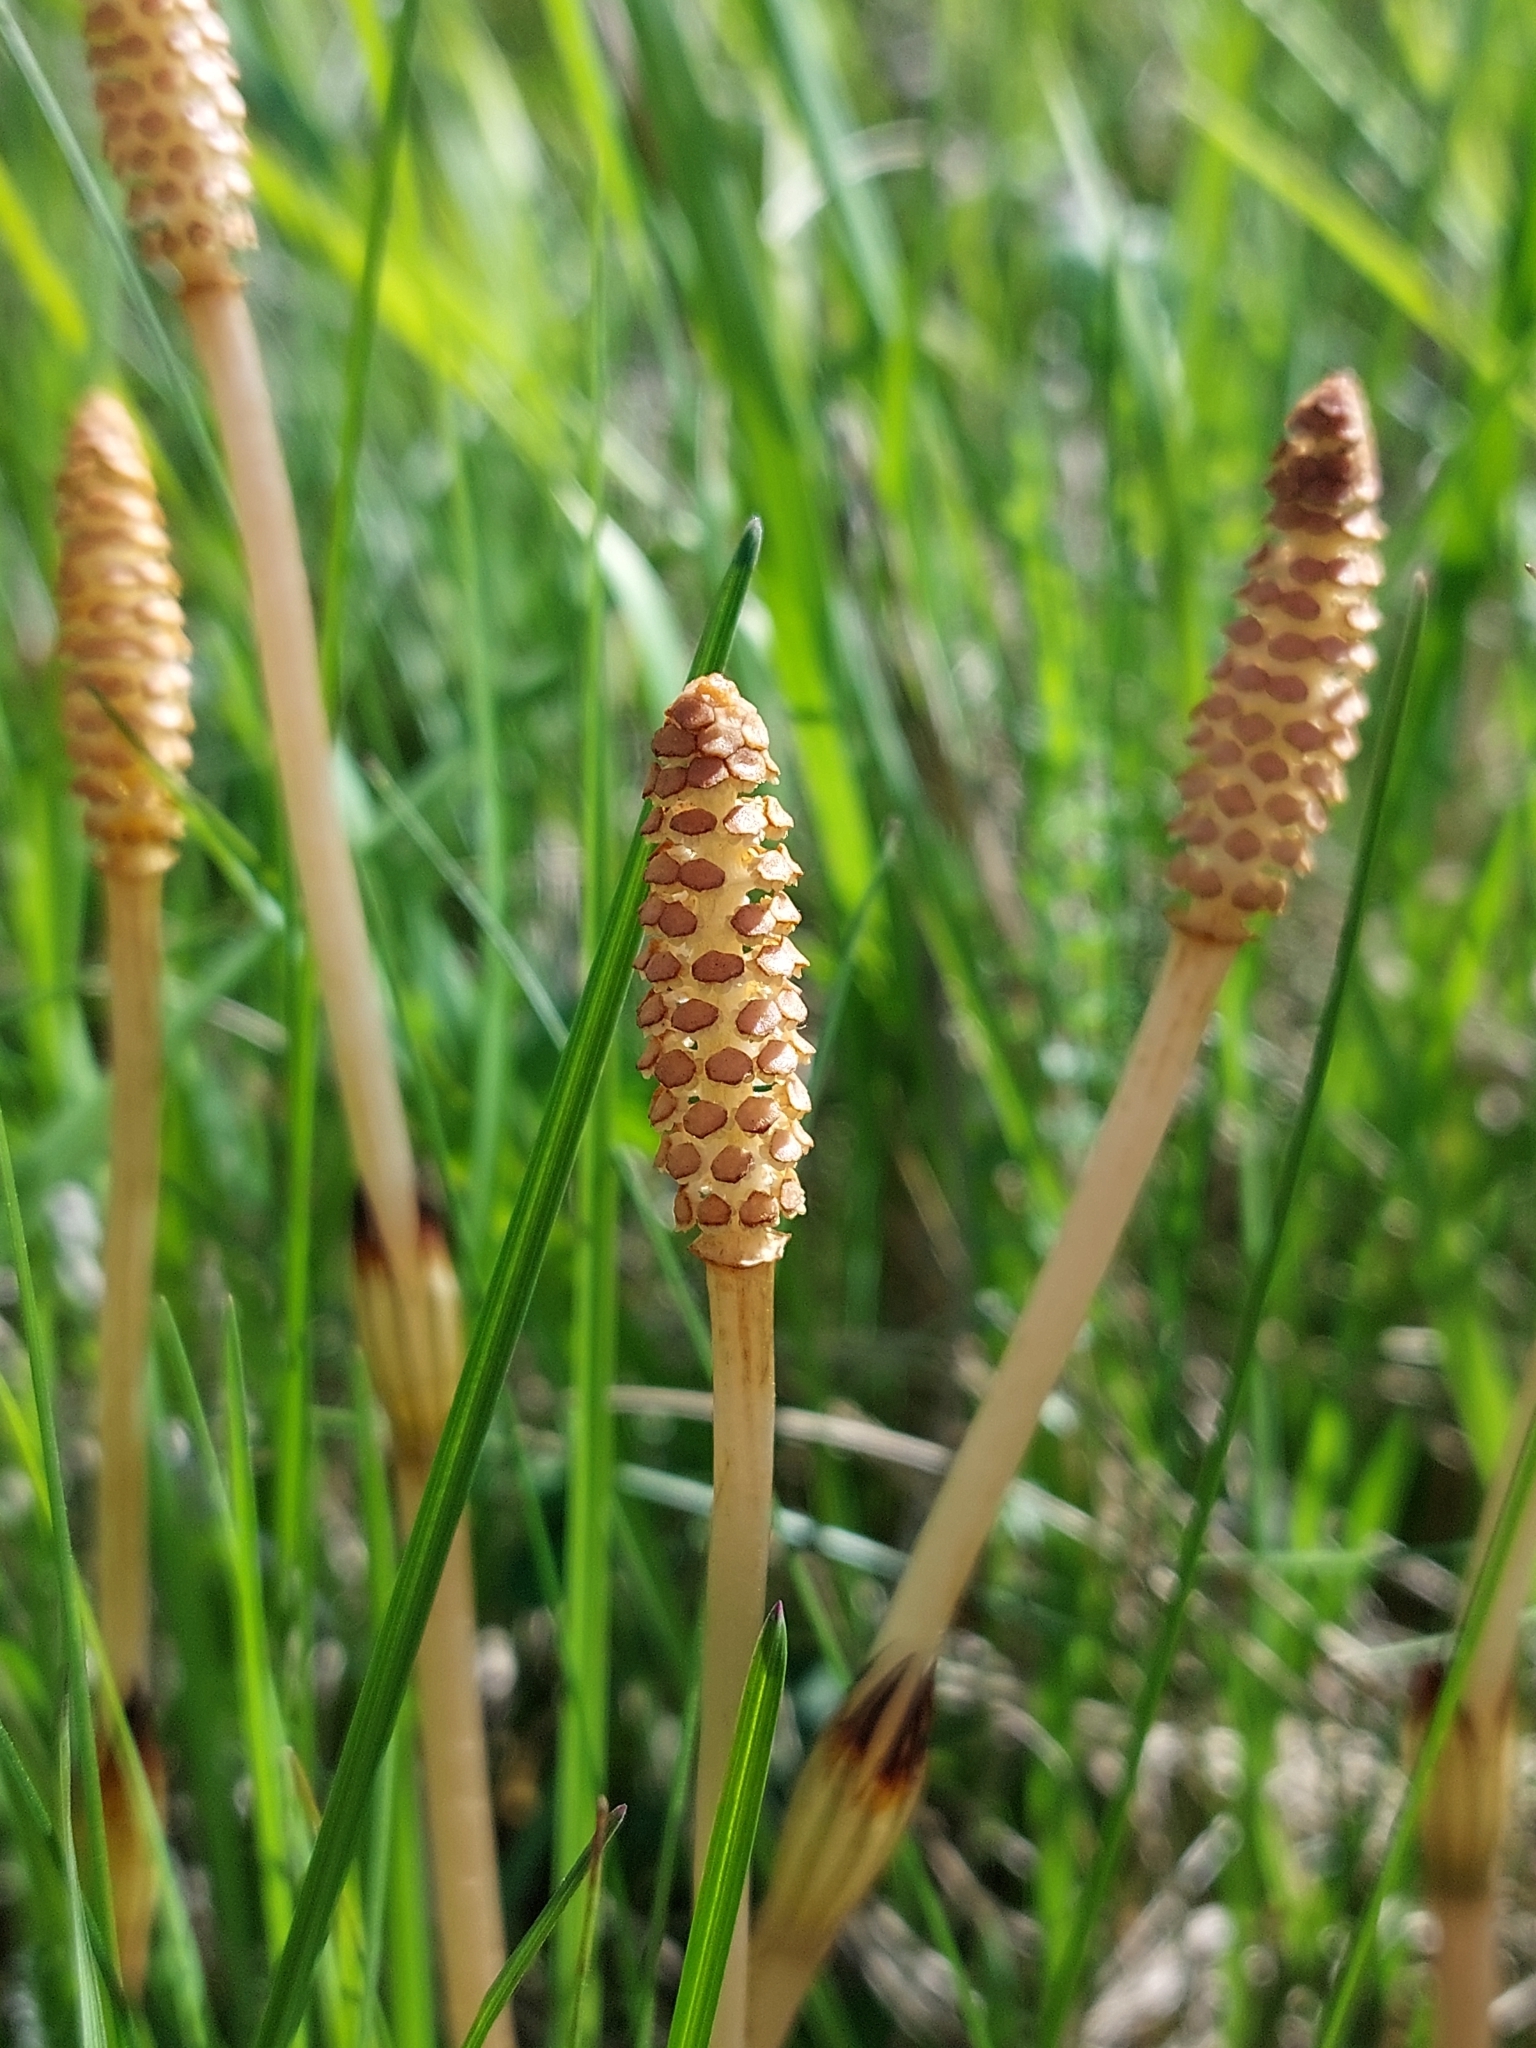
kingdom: Plantae
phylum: Tracheophyta
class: Polypodiopsida
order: Equisetales
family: Equisetaceae
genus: Equisetum
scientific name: Equisetum arvense
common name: Field horsetail
